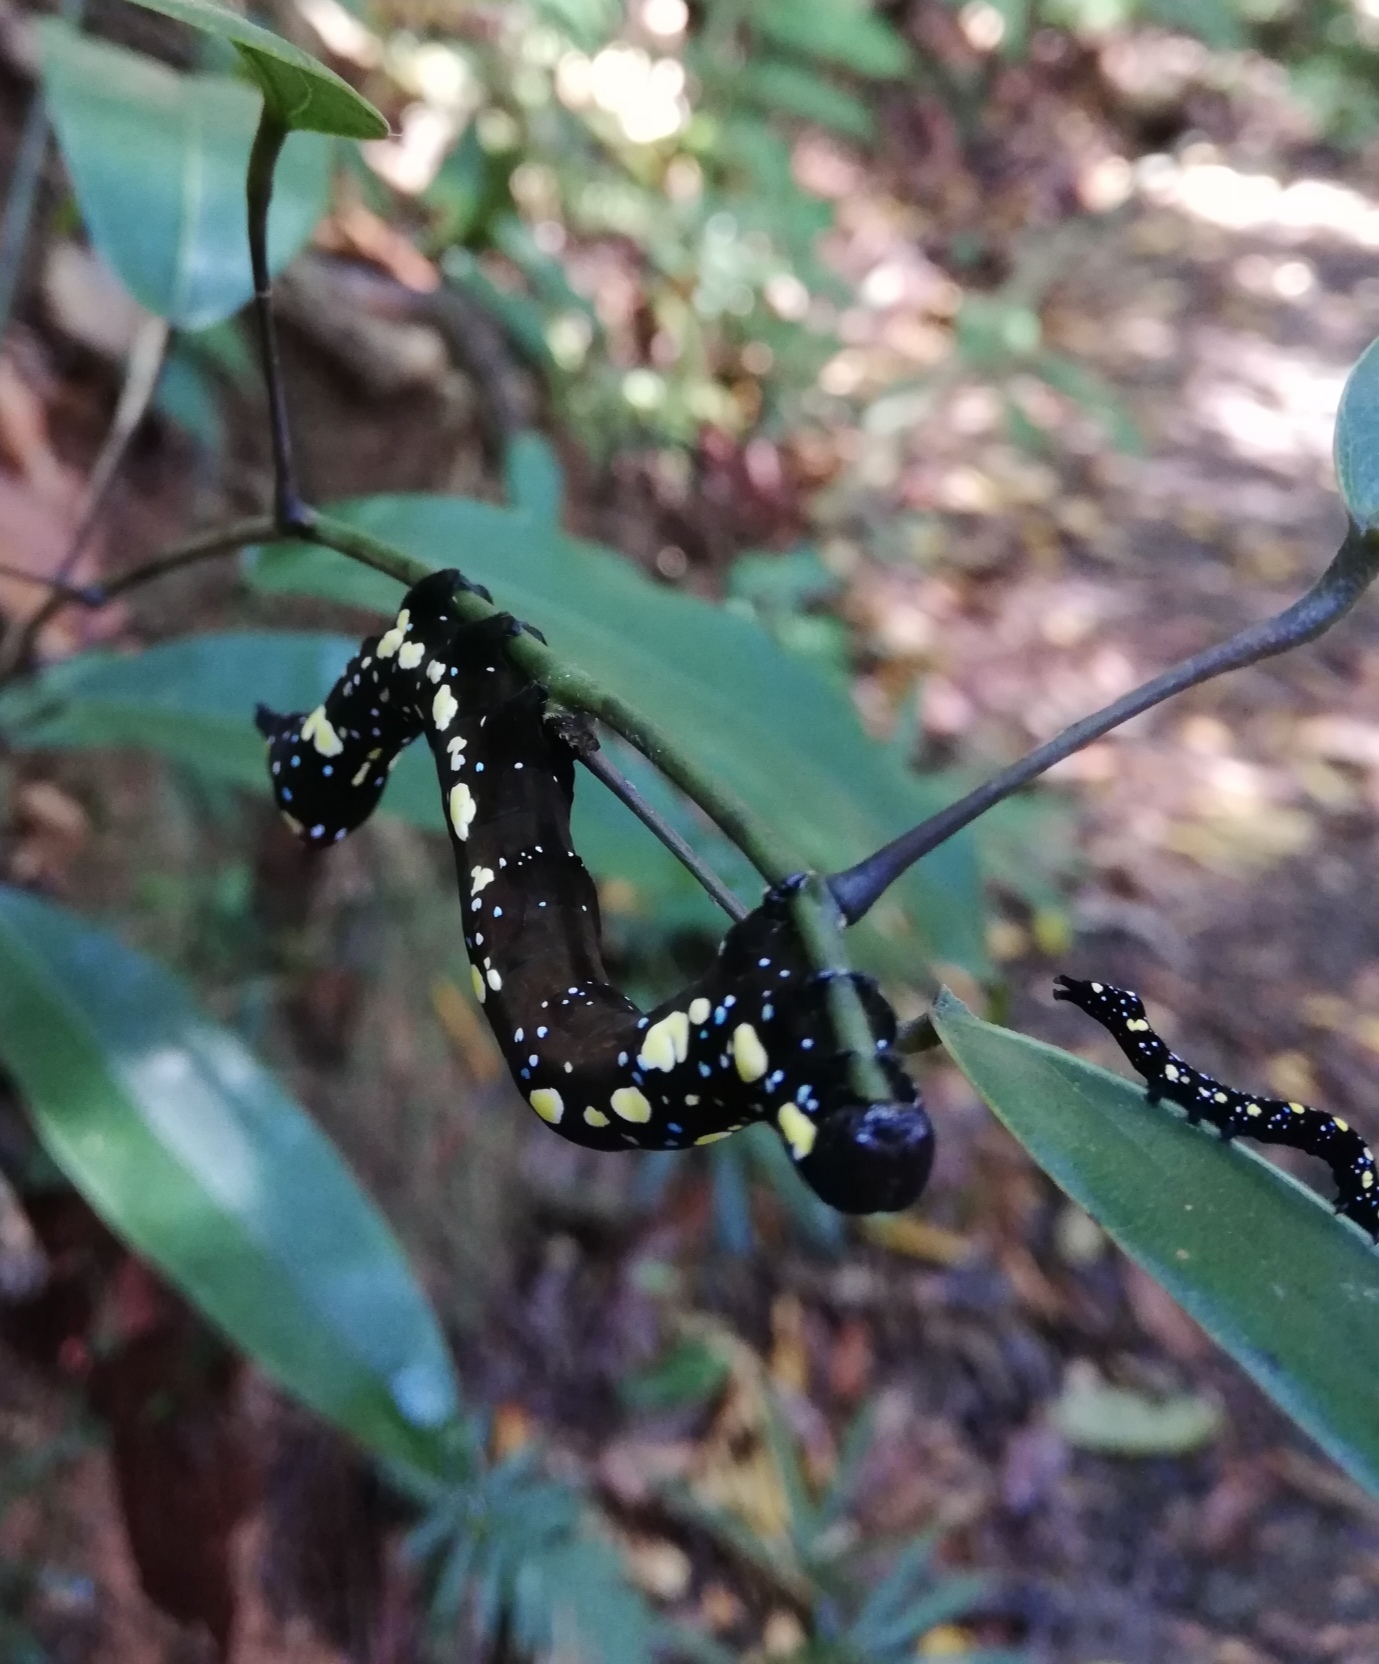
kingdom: Animalia
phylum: Arthropoda
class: Insecta
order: Lepidoptera
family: Erebidae
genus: Eudocima
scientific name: Eudocima iridescens
